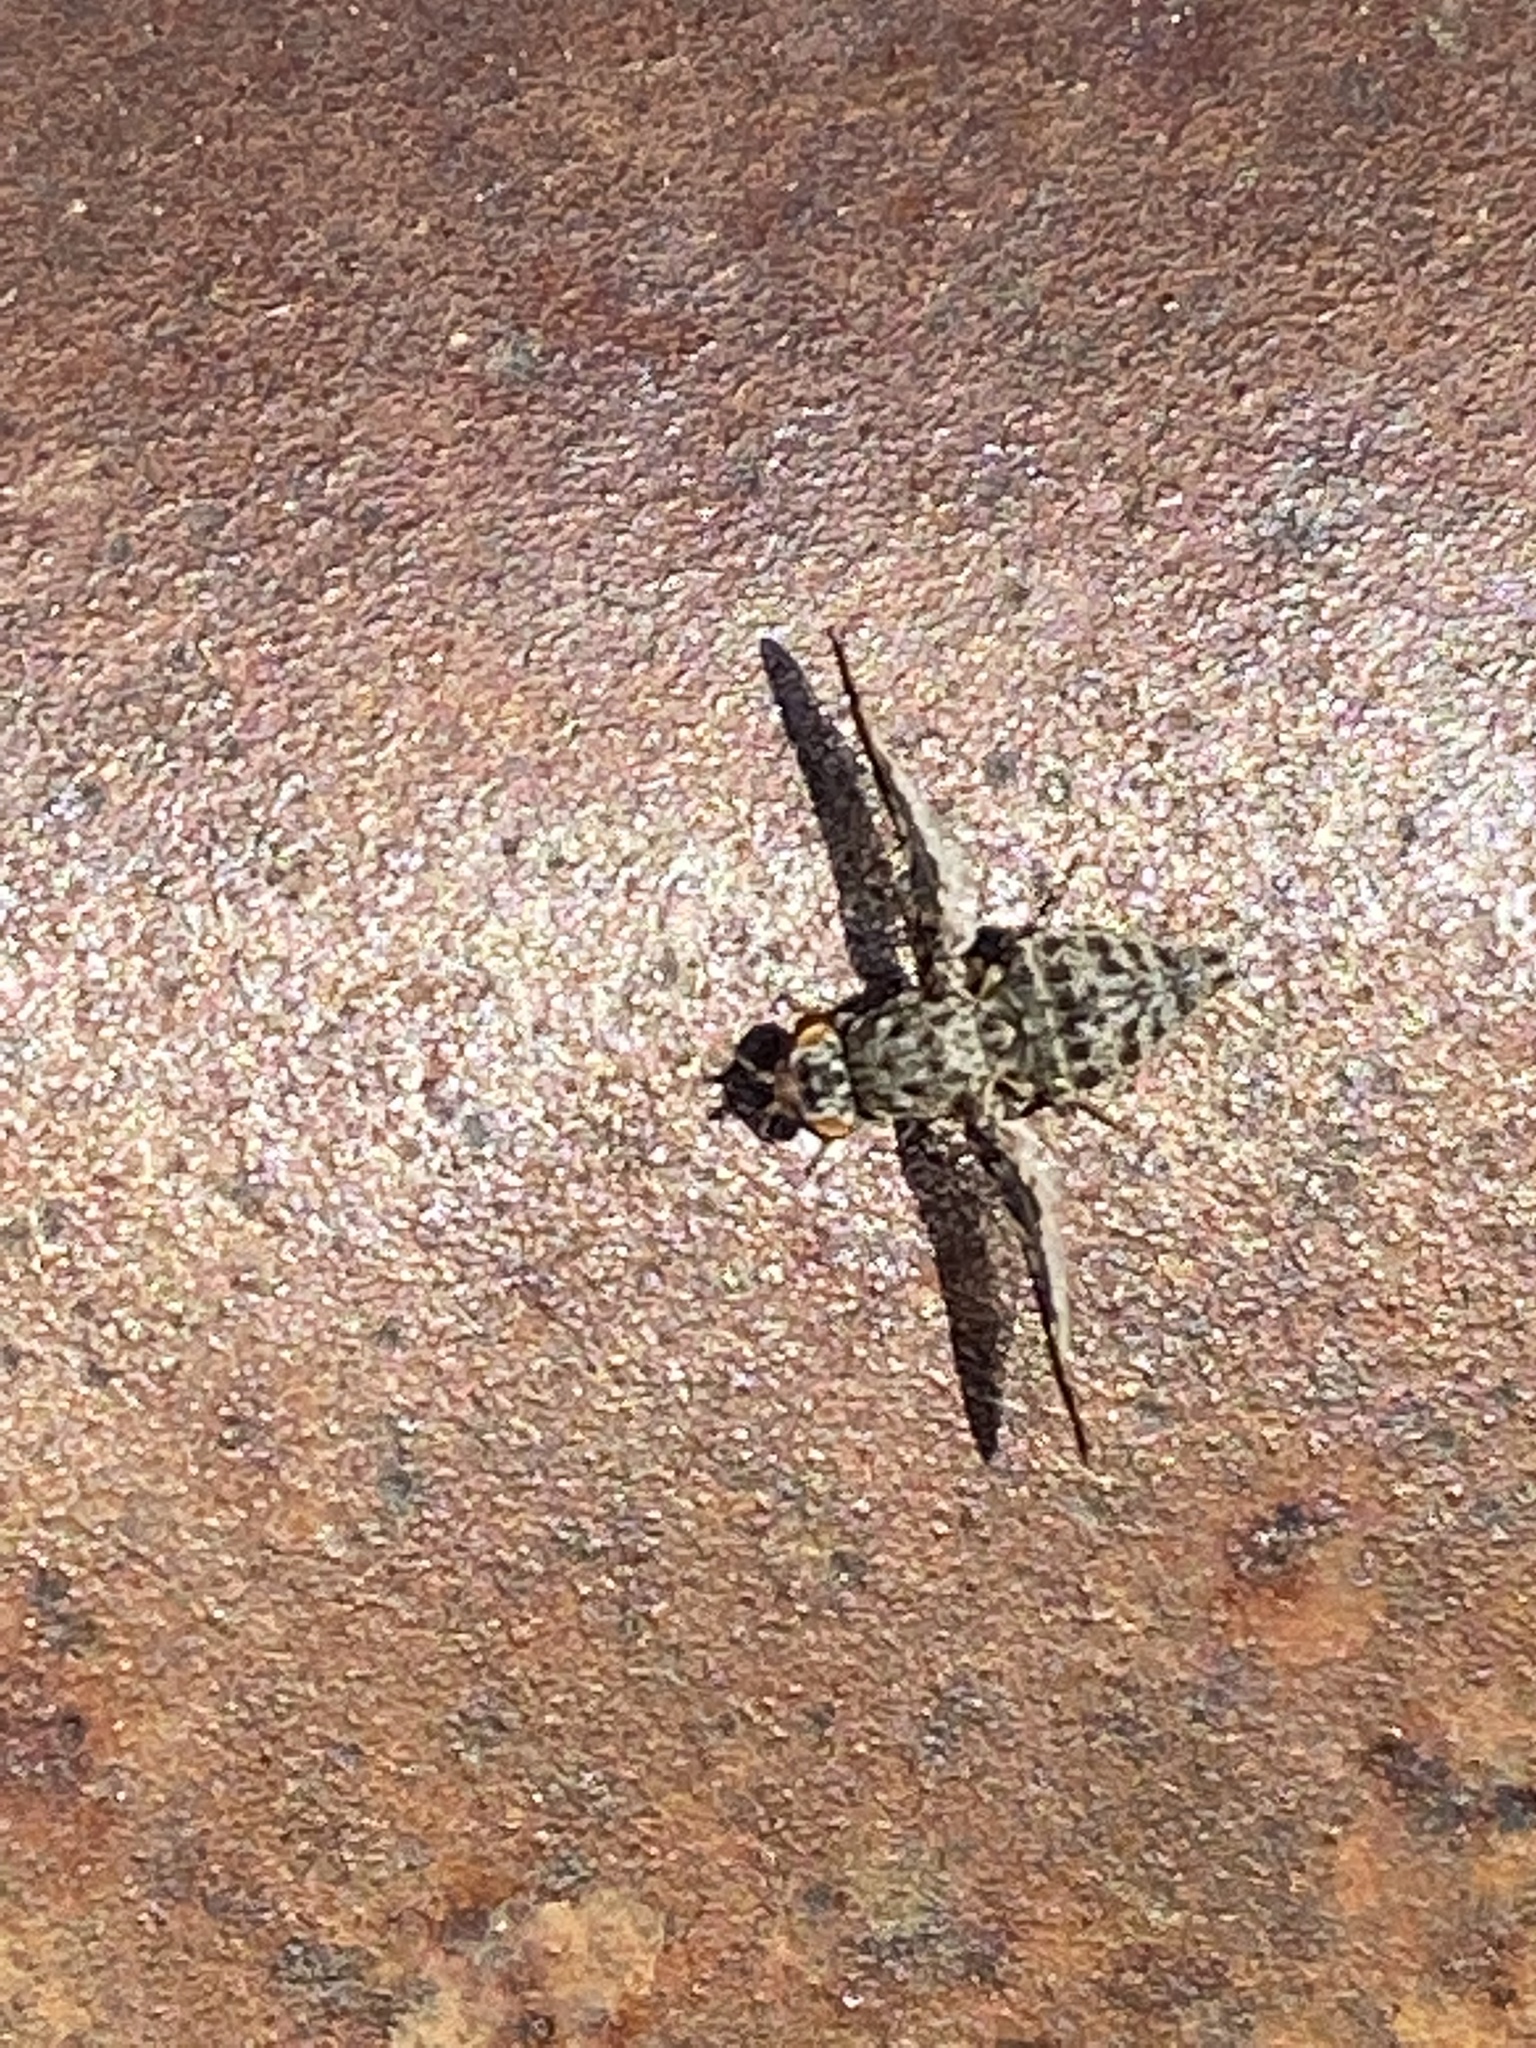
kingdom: Animalia
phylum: Arthropoda
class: Insecta
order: Diptera
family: Ulidiidae
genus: Callopistromyia
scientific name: Callopistromyia strigula
